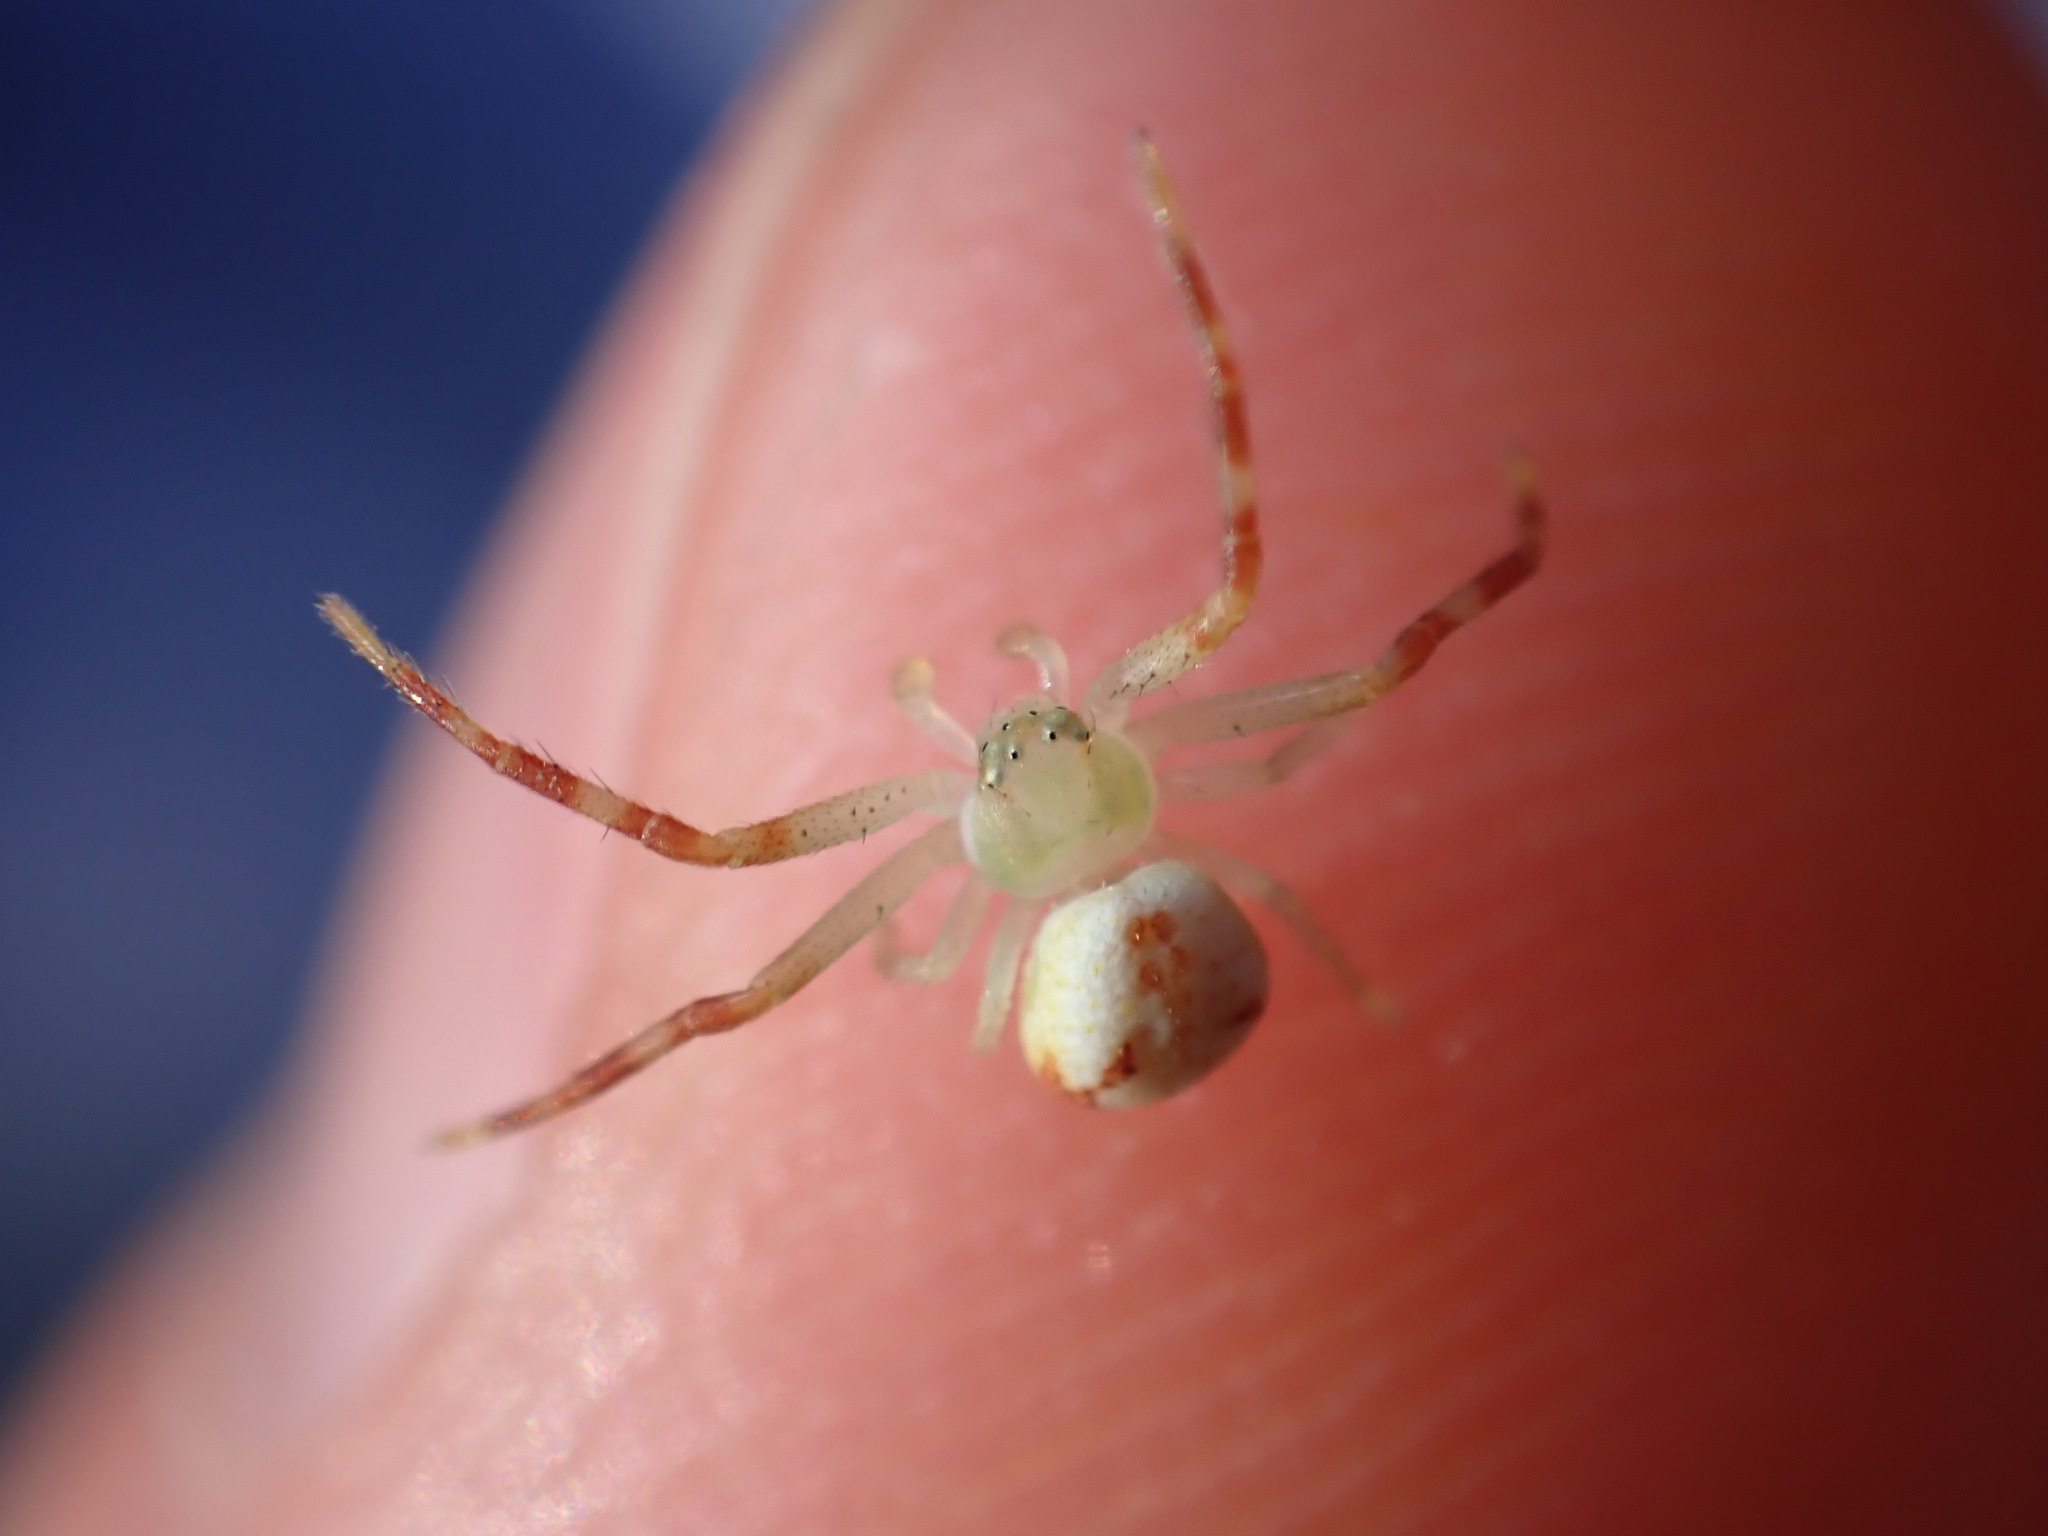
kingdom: Animalia
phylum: Arthropoda
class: Arachnida
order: Araneae
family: Thomisidae
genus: Ebrechtella
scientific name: Ebrechtella tricuspidata
